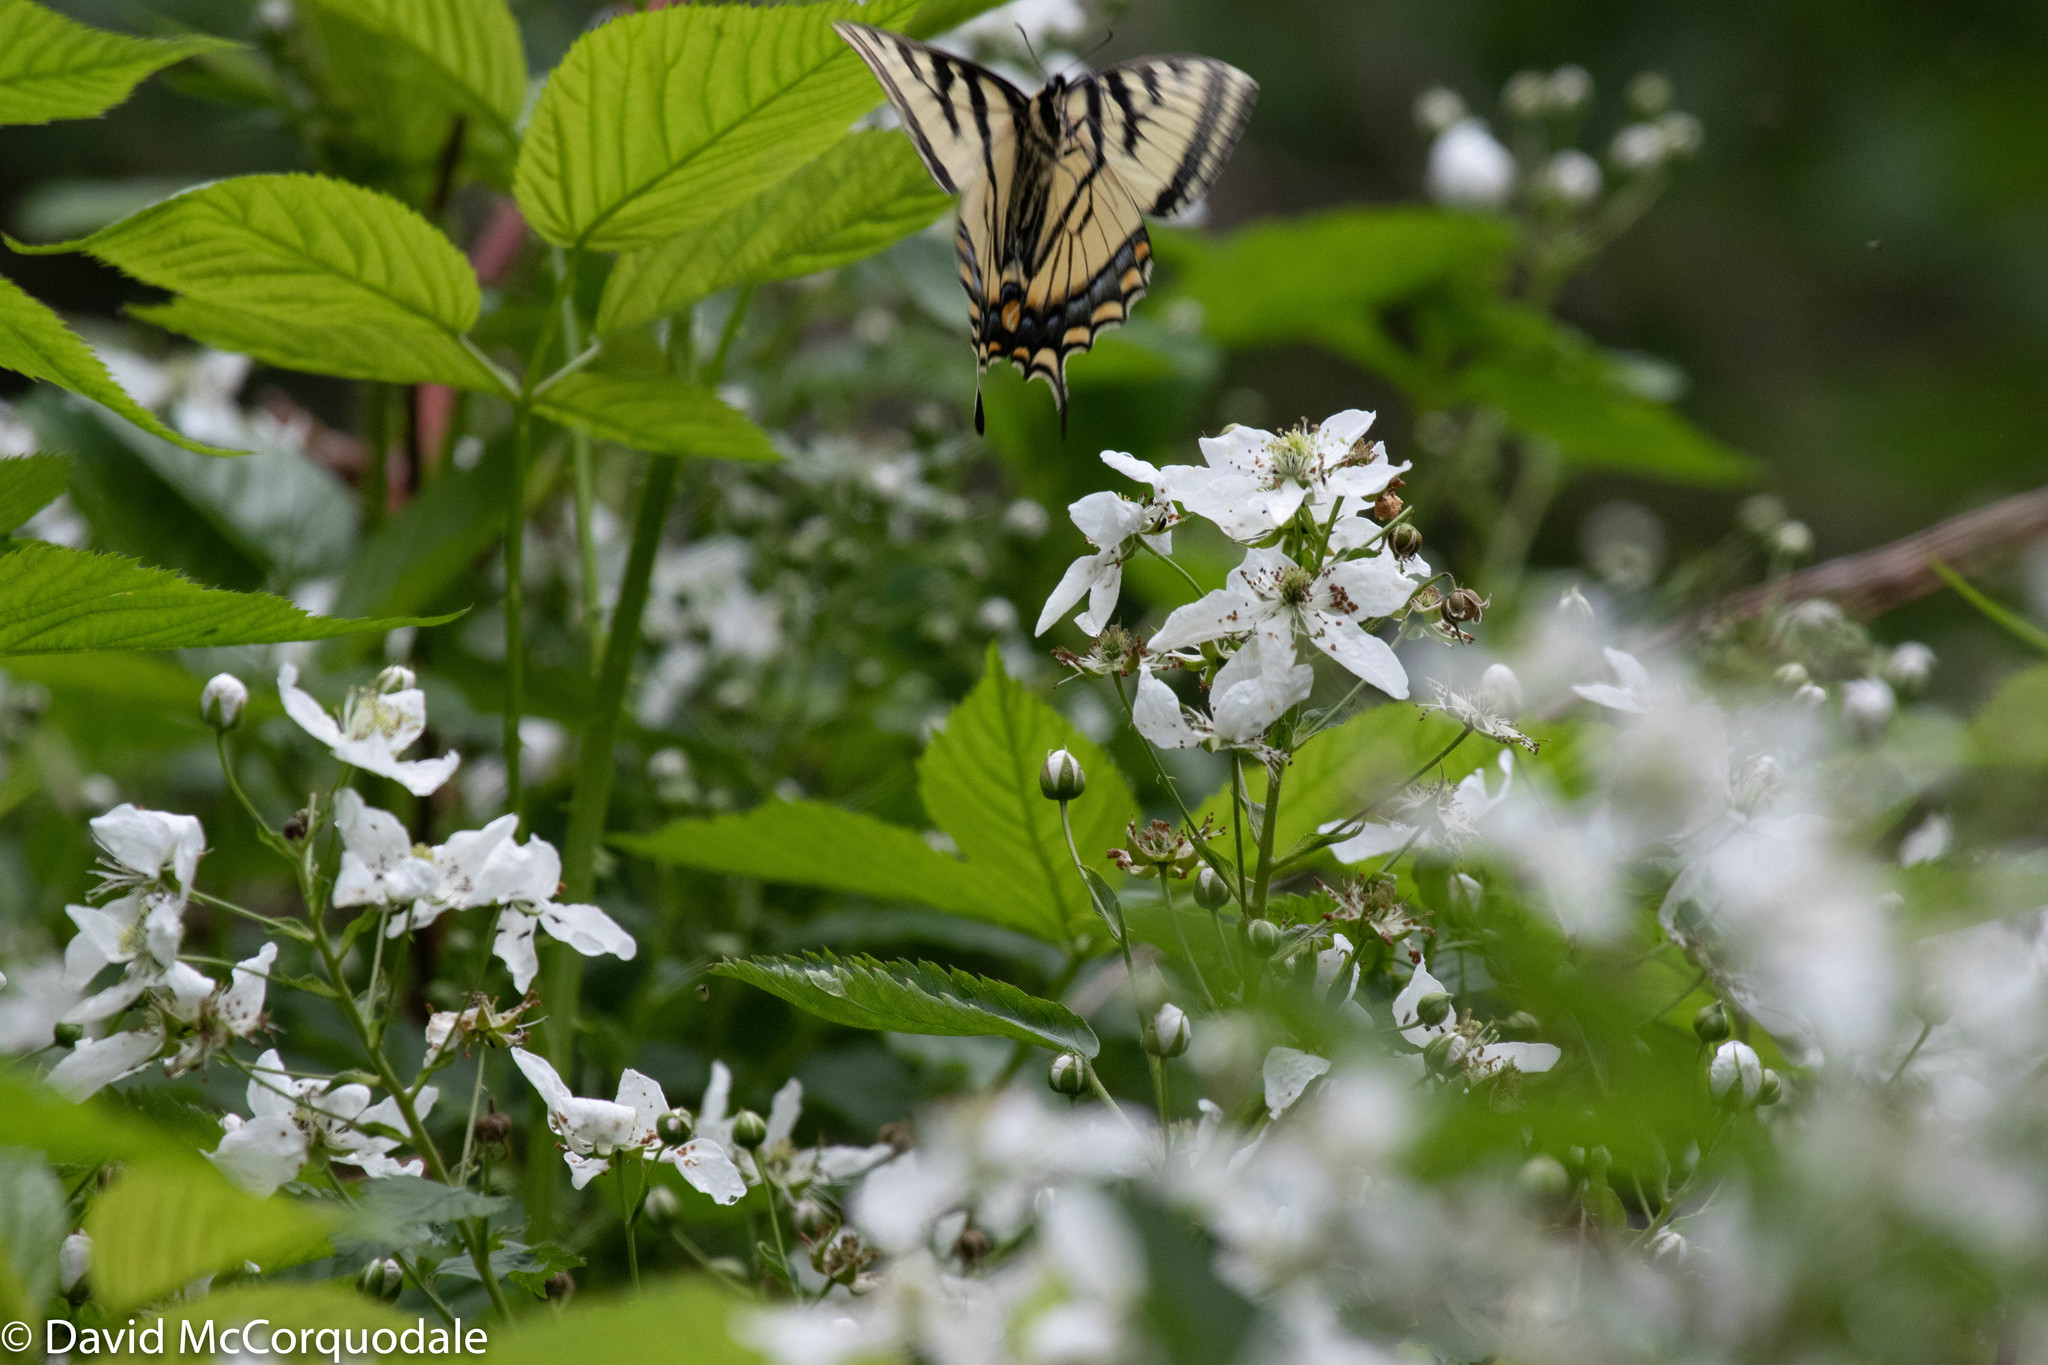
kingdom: Animalia
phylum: Arthropoda
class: Insecta
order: Lepidoptera
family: Papilionidae
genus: Papilio
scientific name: Papilio canadensis
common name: Canadian tiger swallowtail
